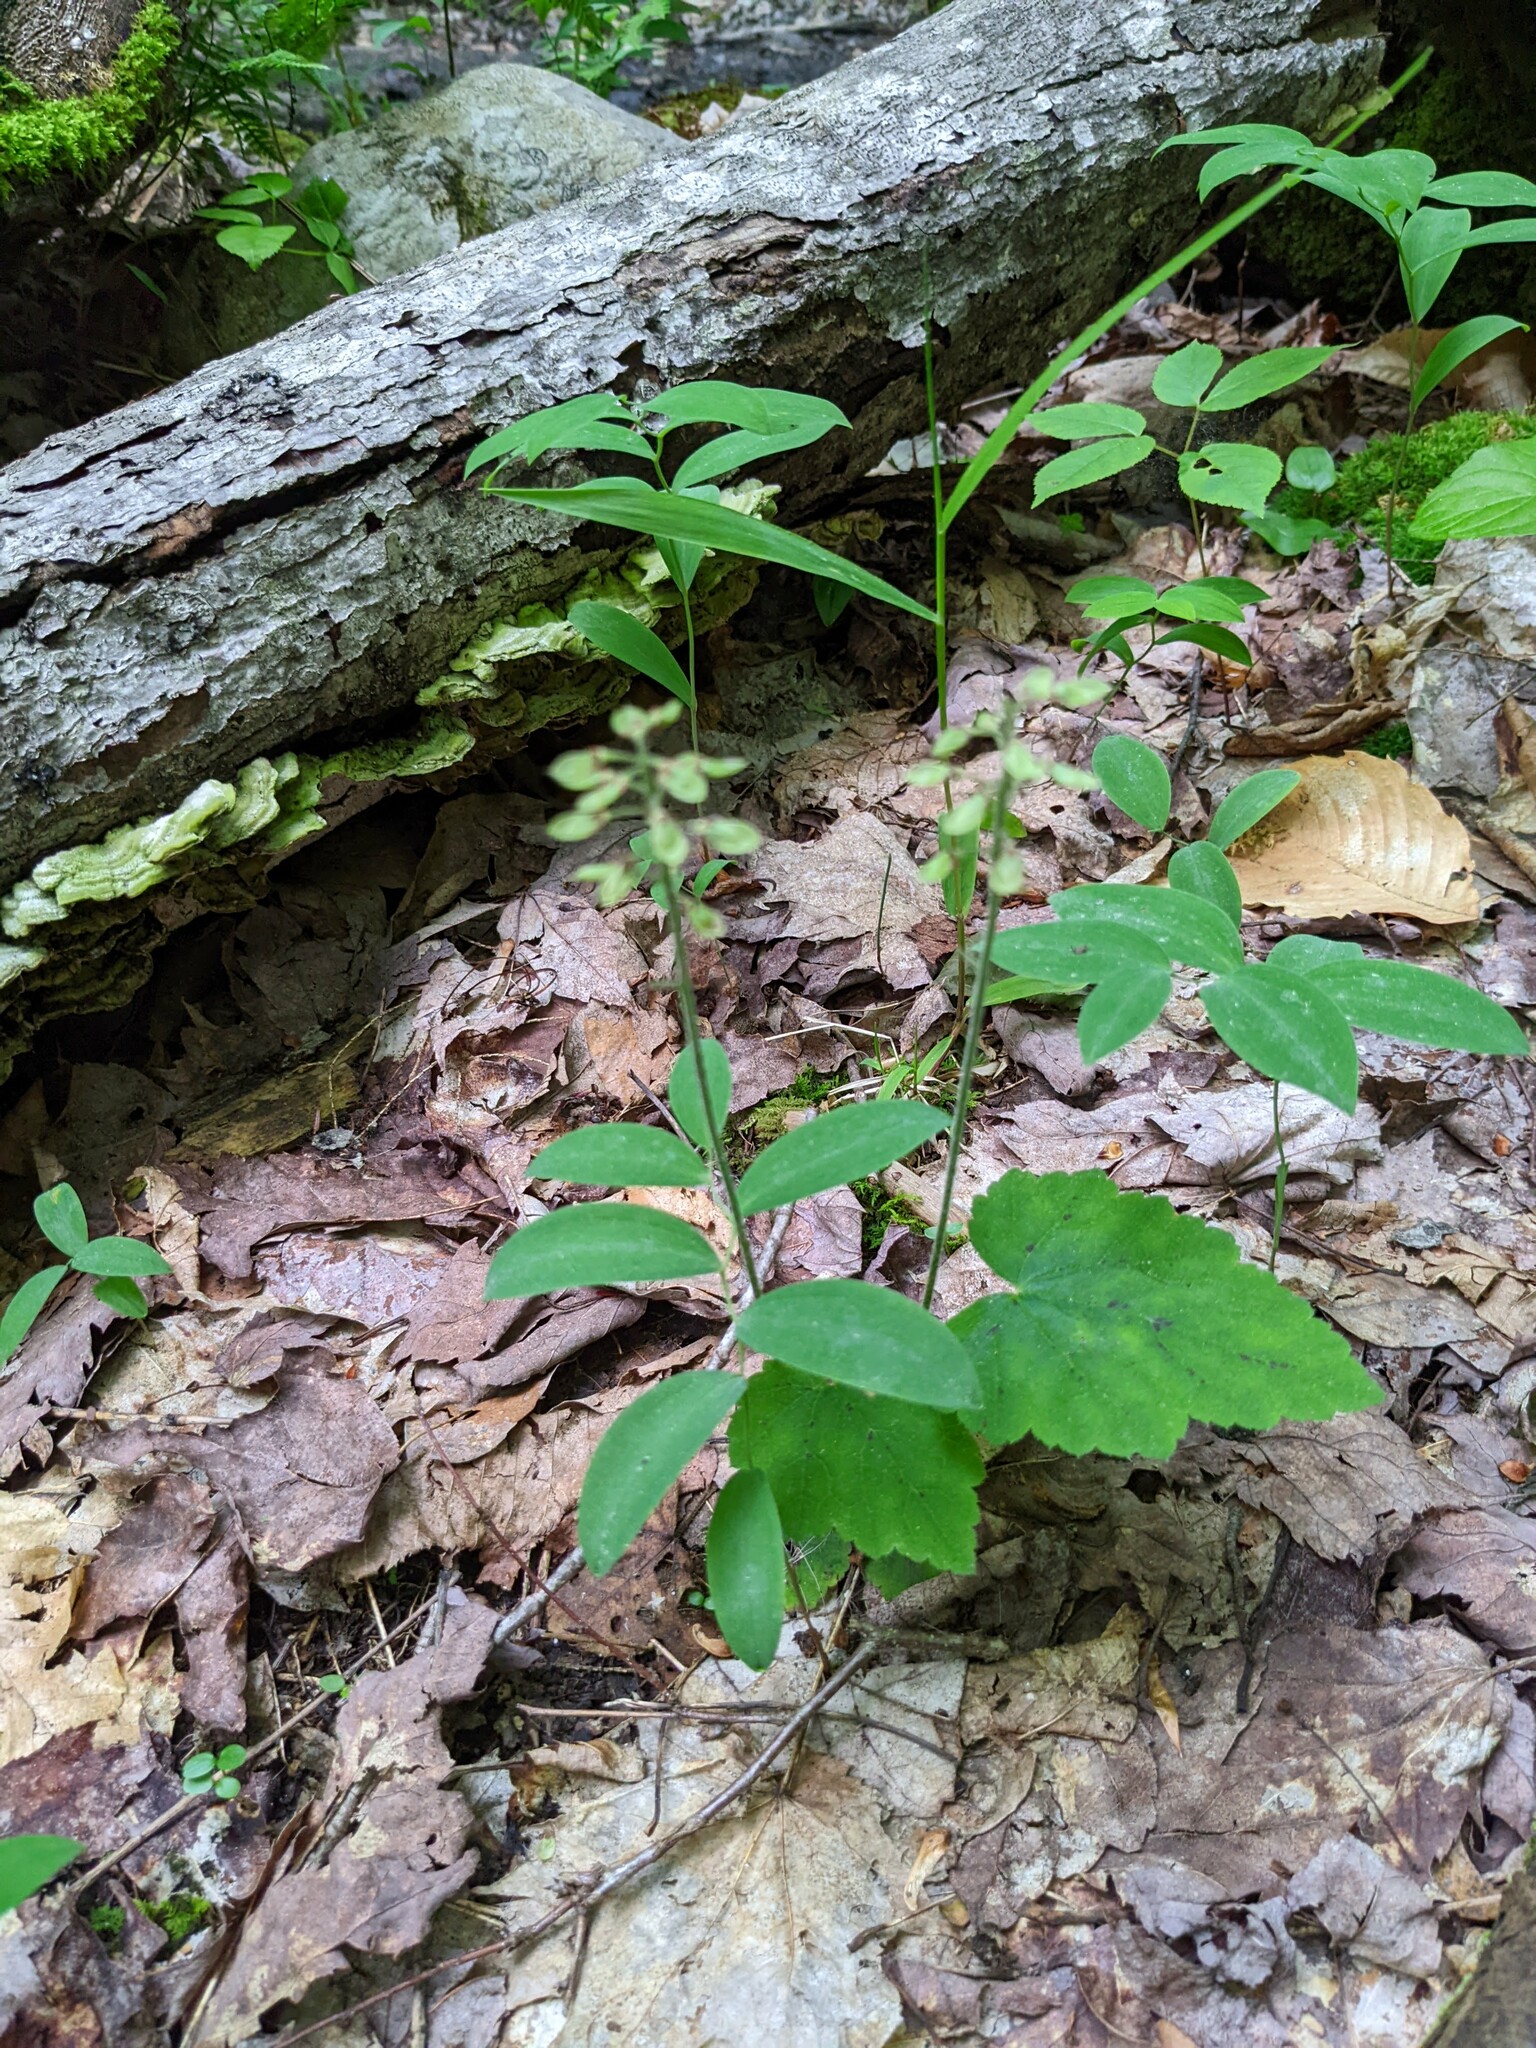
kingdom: Plantae
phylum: Tracheophyta
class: Magnoliopsida
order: Saxifragales
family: Saxifragaceae
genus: Tiarella
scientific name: Tiarella stolonifera
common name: Stoloniferous foamflower
